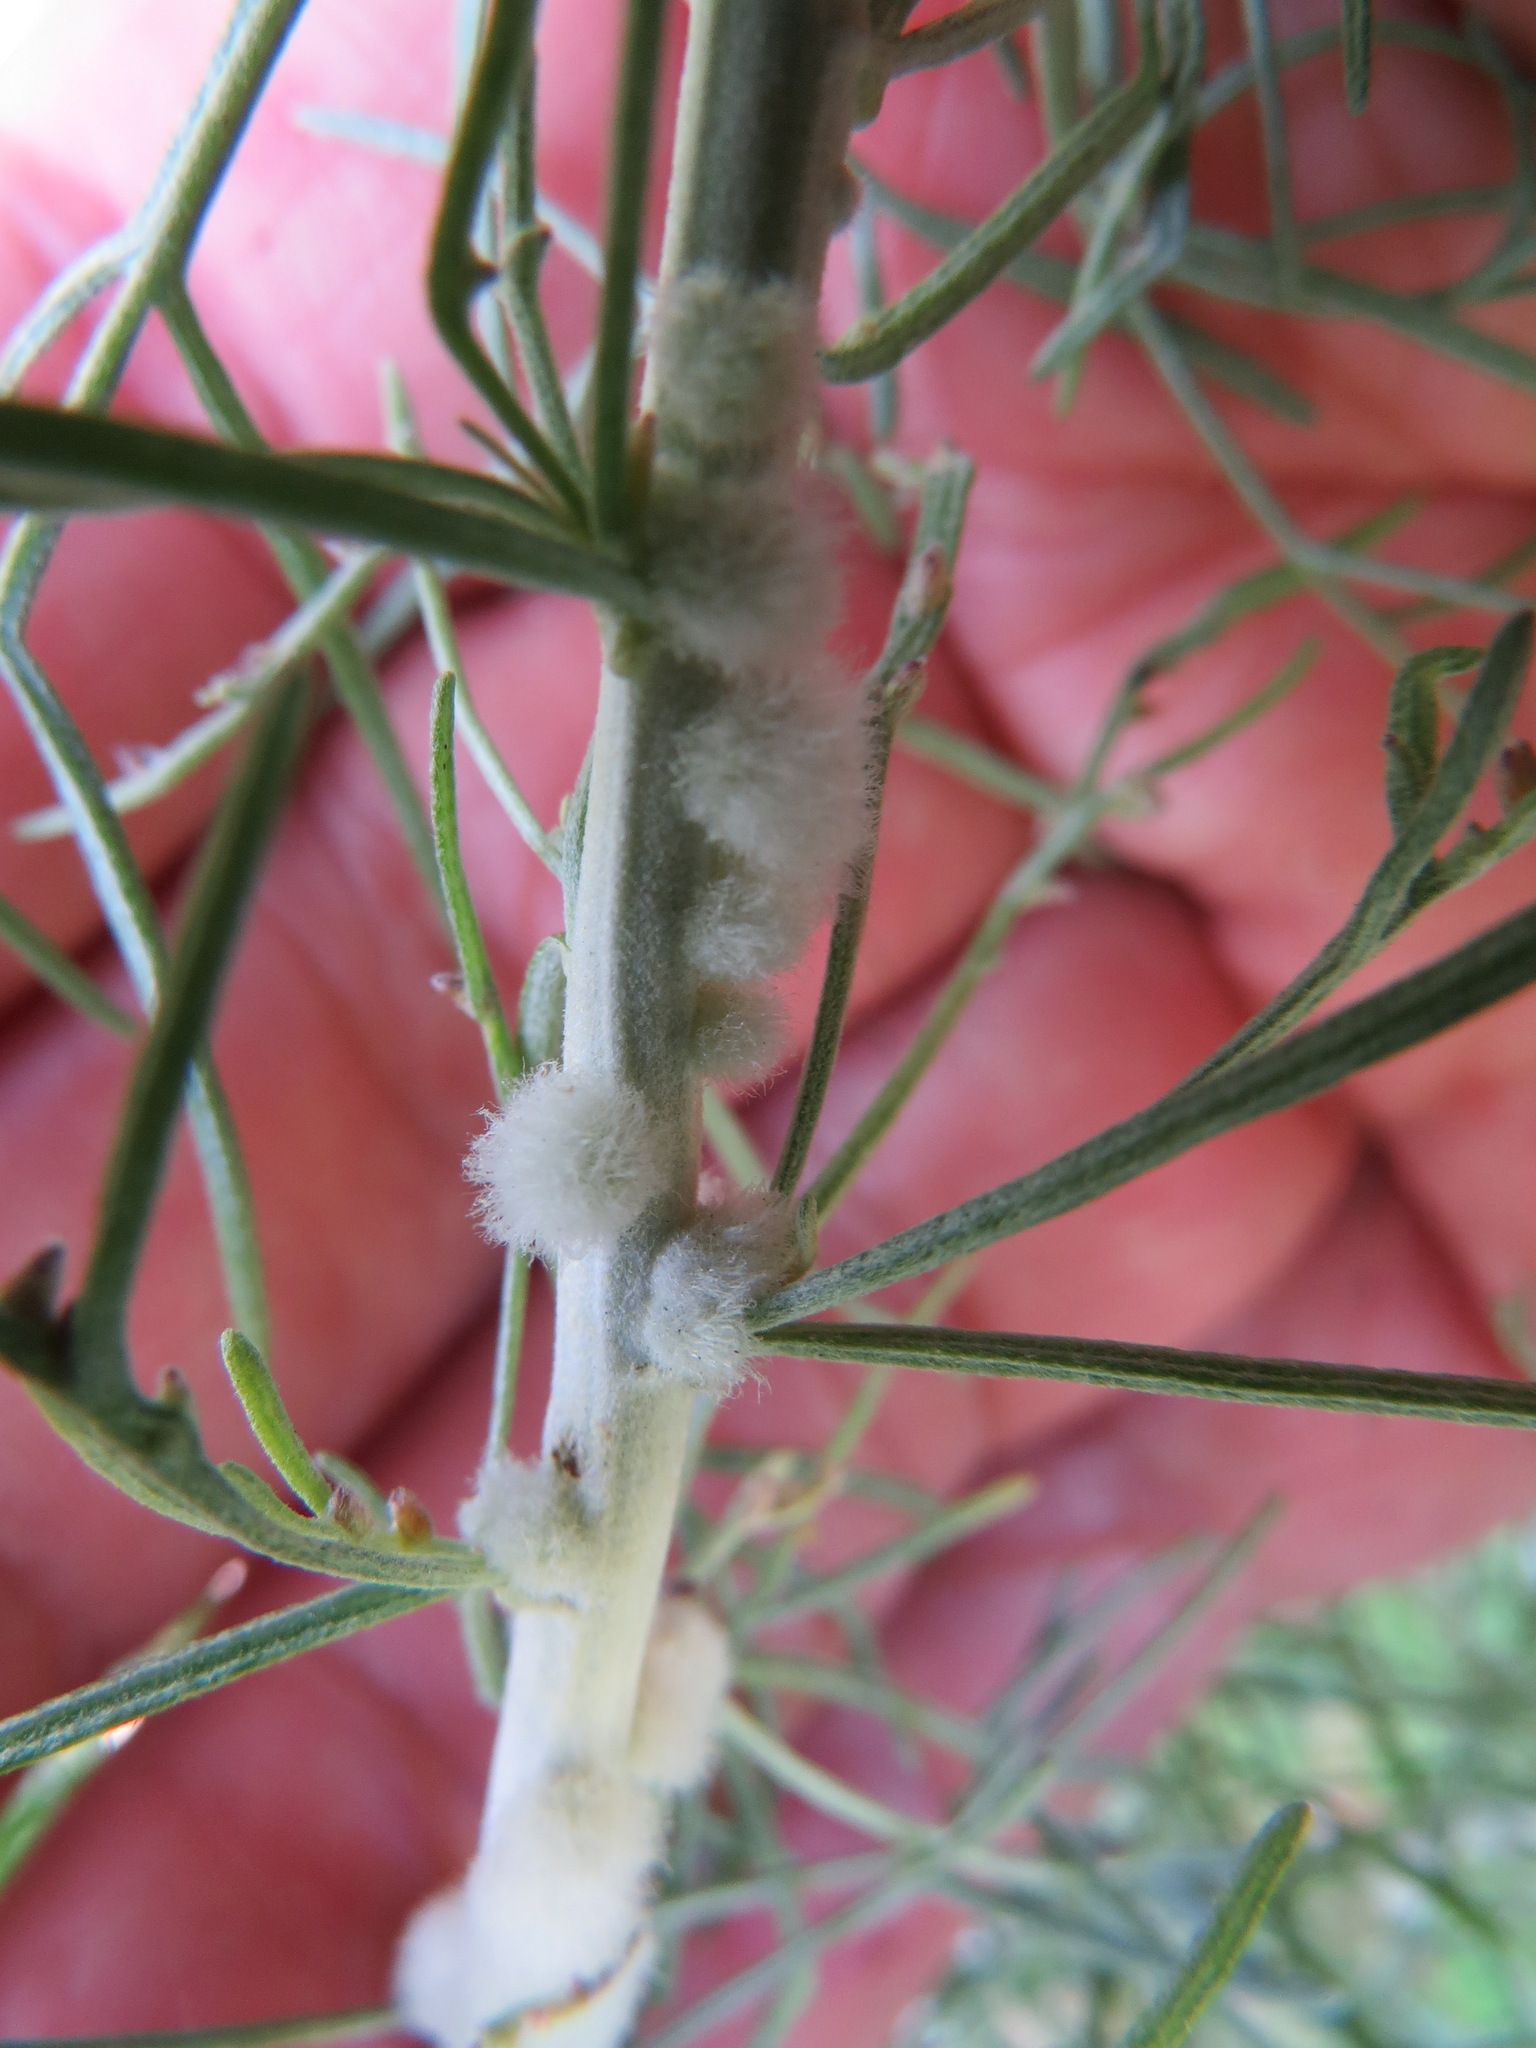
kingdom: Animalia
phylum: Arthropoda
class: Insecta
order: Diptera
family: Cecidomyiidae
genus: Rhopalomyia
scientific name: Rhopalomyia floccosa
